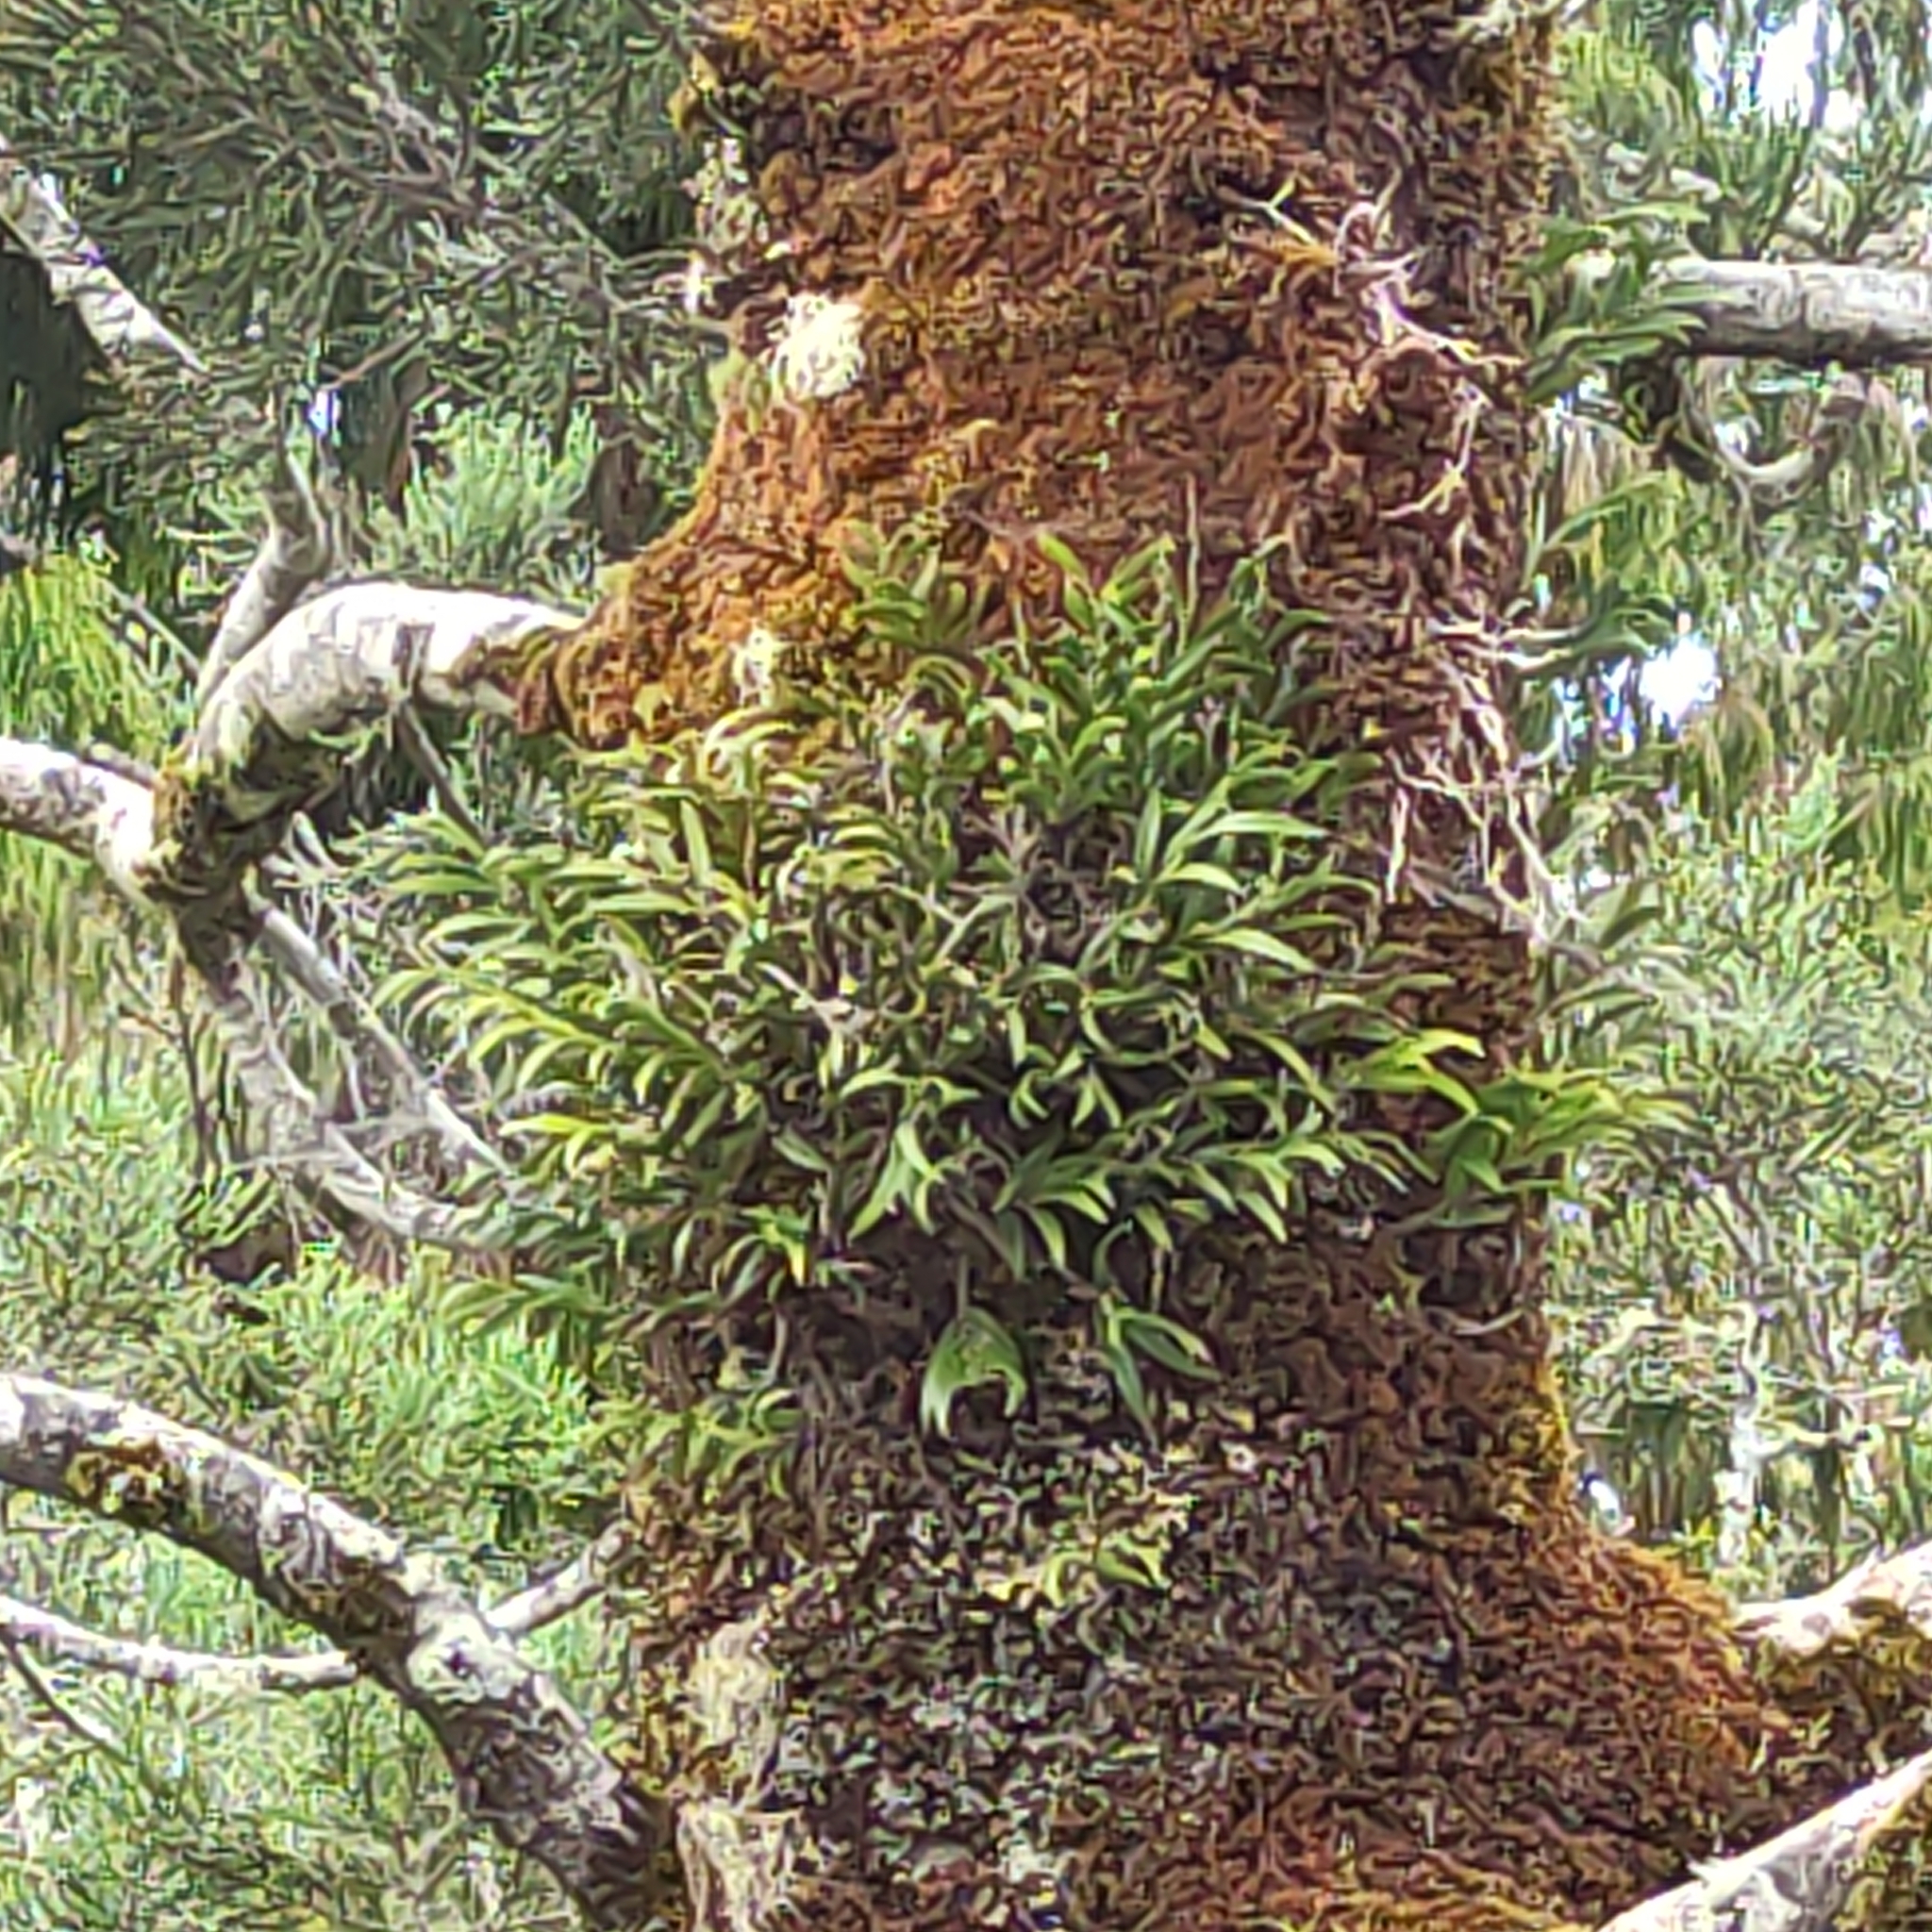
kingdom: Plantae
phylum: Tracheophyta
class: Liliopsida
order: Asparagales
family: Orchidaceae
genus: Earina
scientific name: Earina autumnalis
